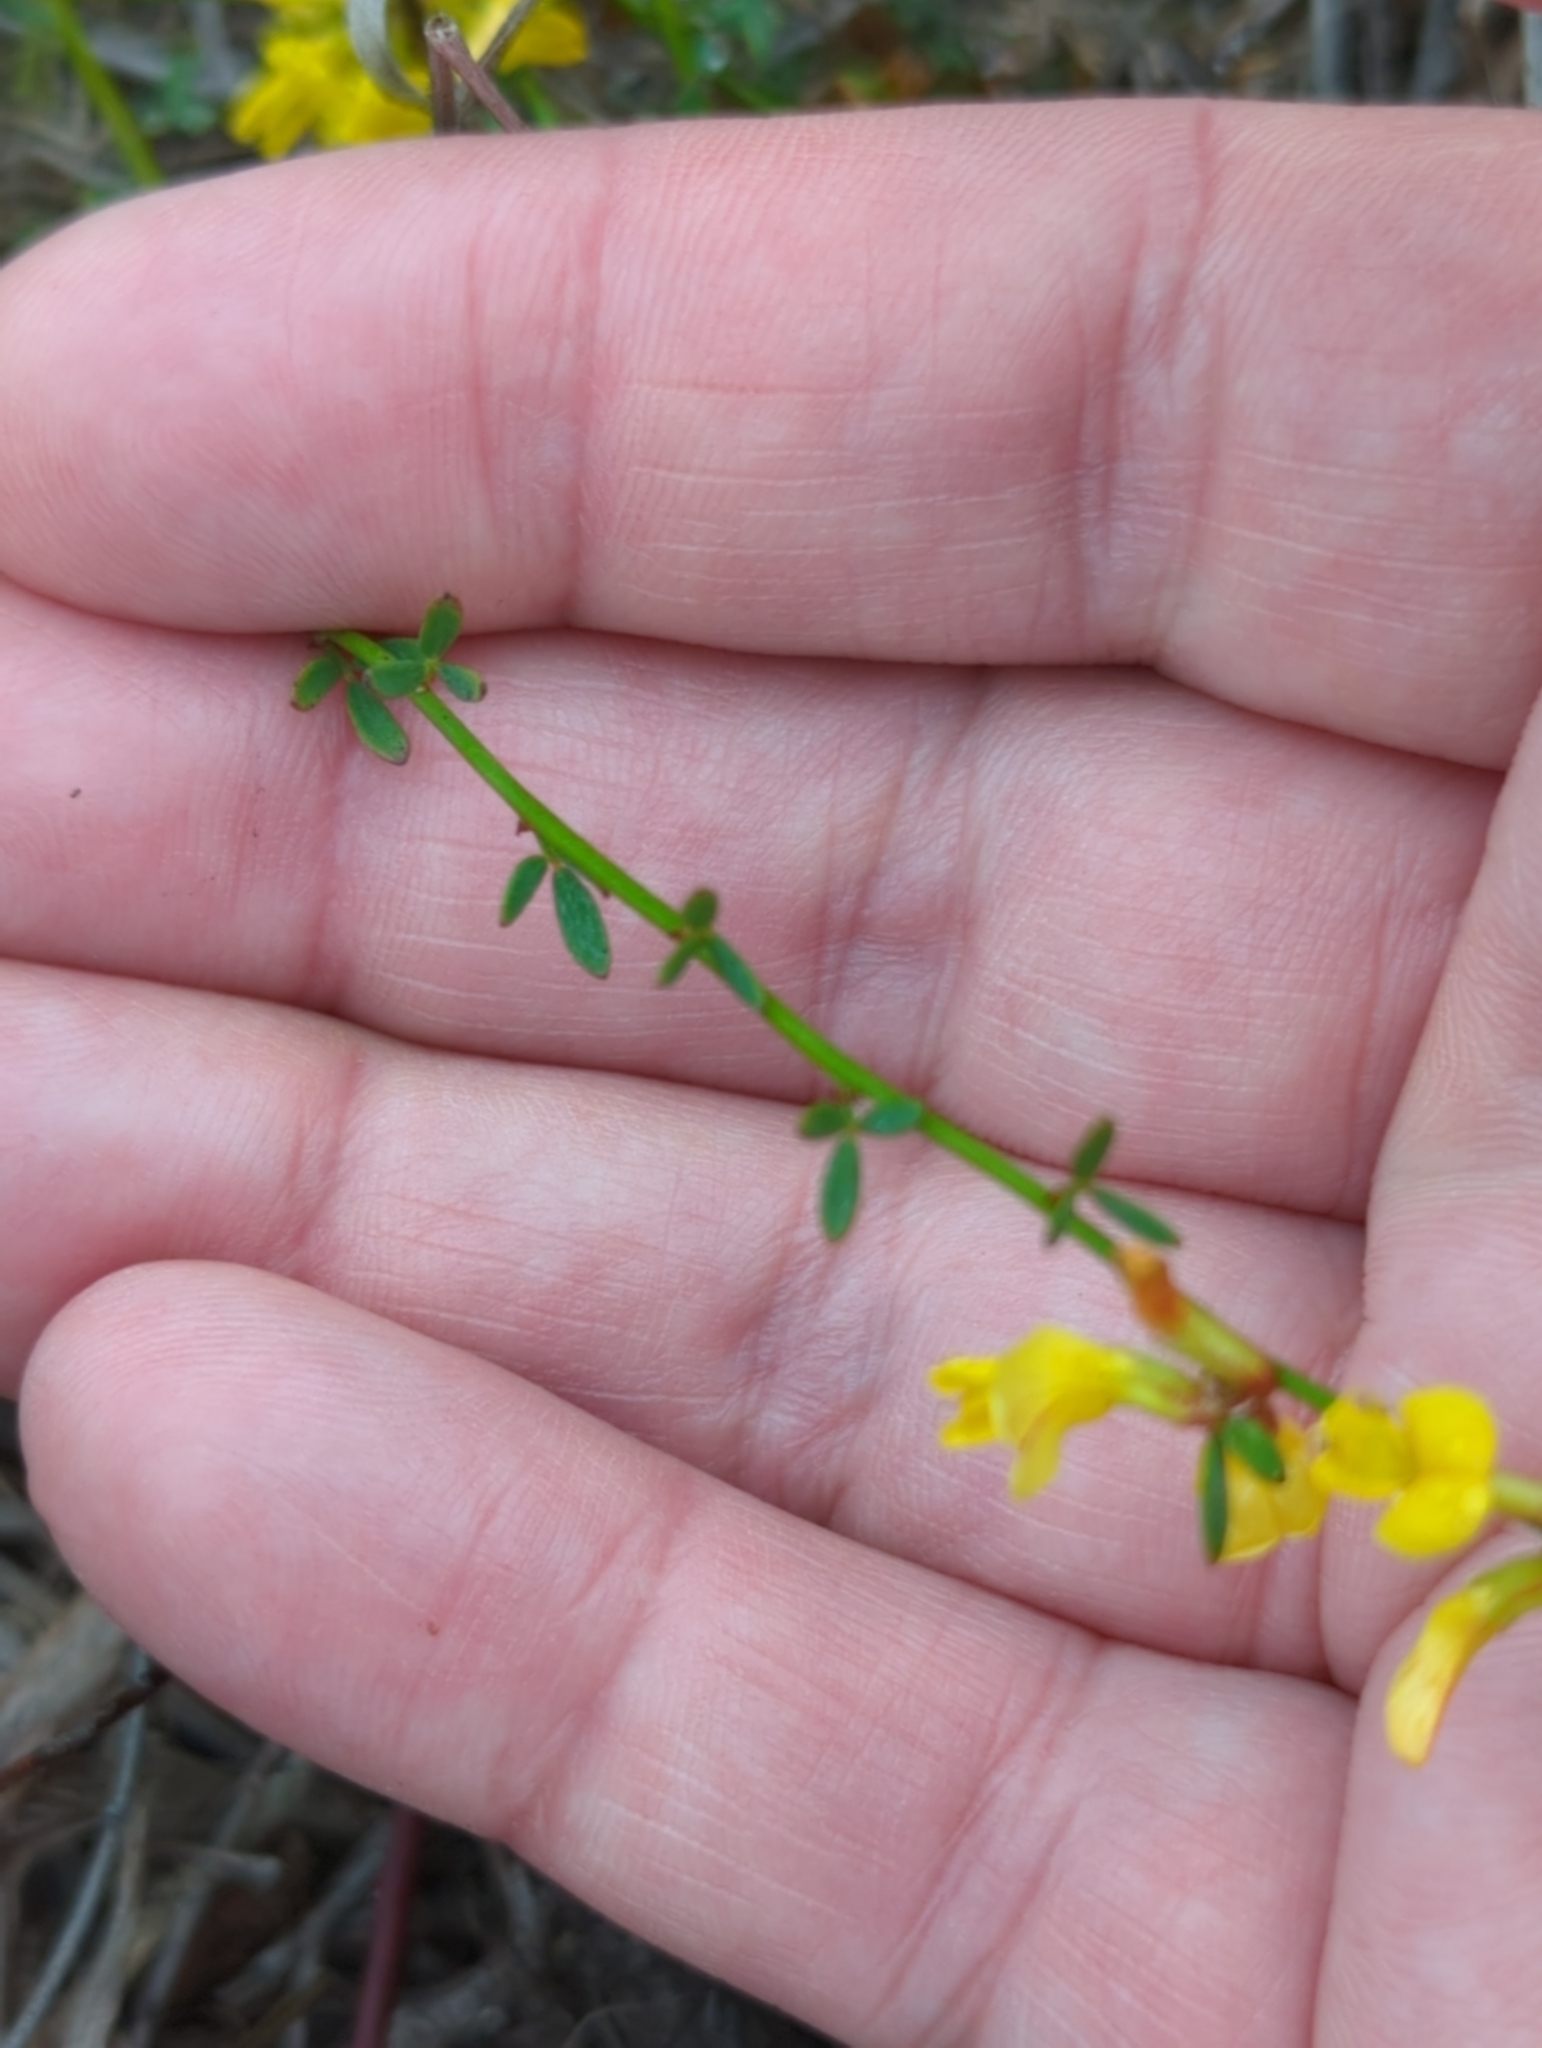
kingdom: Plantae
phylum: Tracheophyta
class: Magnoliopsida
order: Fabales
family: Fabaceae
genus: Acmispon
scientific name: Acmispon glaber
